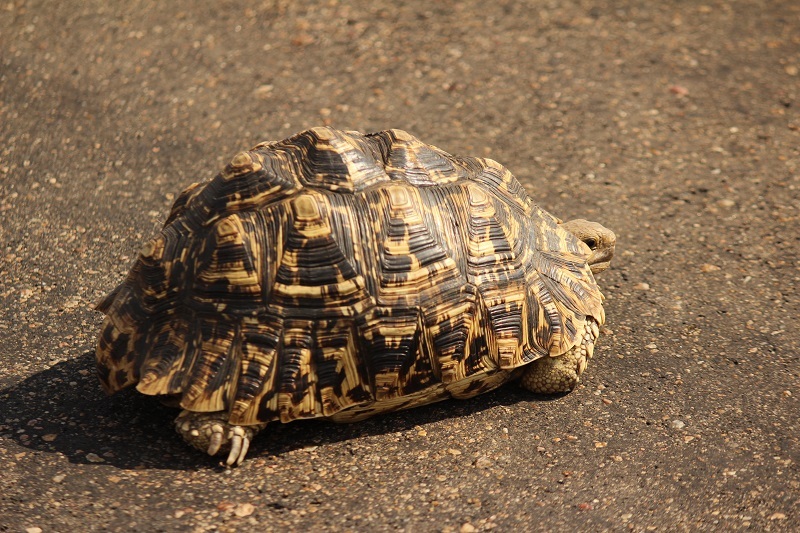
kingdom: Animalia
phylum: Chordata
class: Testudines
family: Testudinidae
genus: Stigmochelys
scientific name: Stigmochelys pardalis
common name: Leopard tortoise
